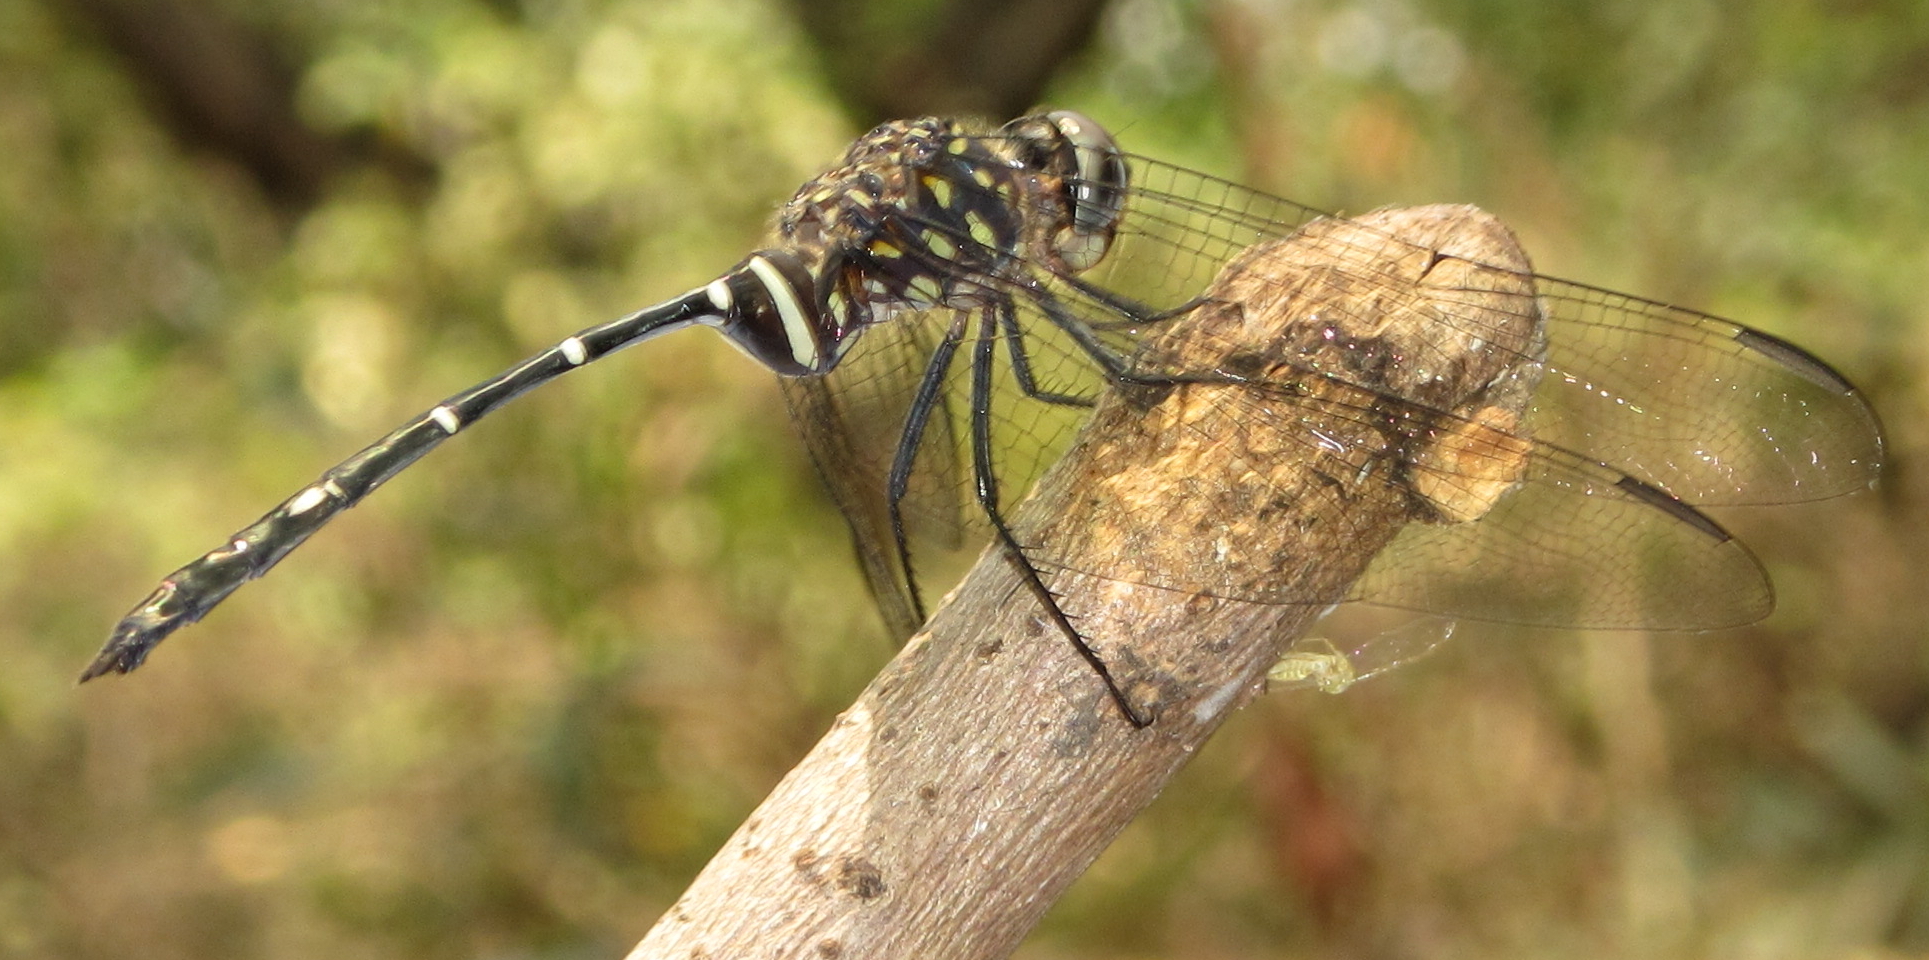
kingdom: Animalia
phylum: Arthropoda
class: Insecta
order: Odonata
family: Libellulidae
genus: Olpogastra
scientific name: Olpogastra lugubris
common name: Bottletail
